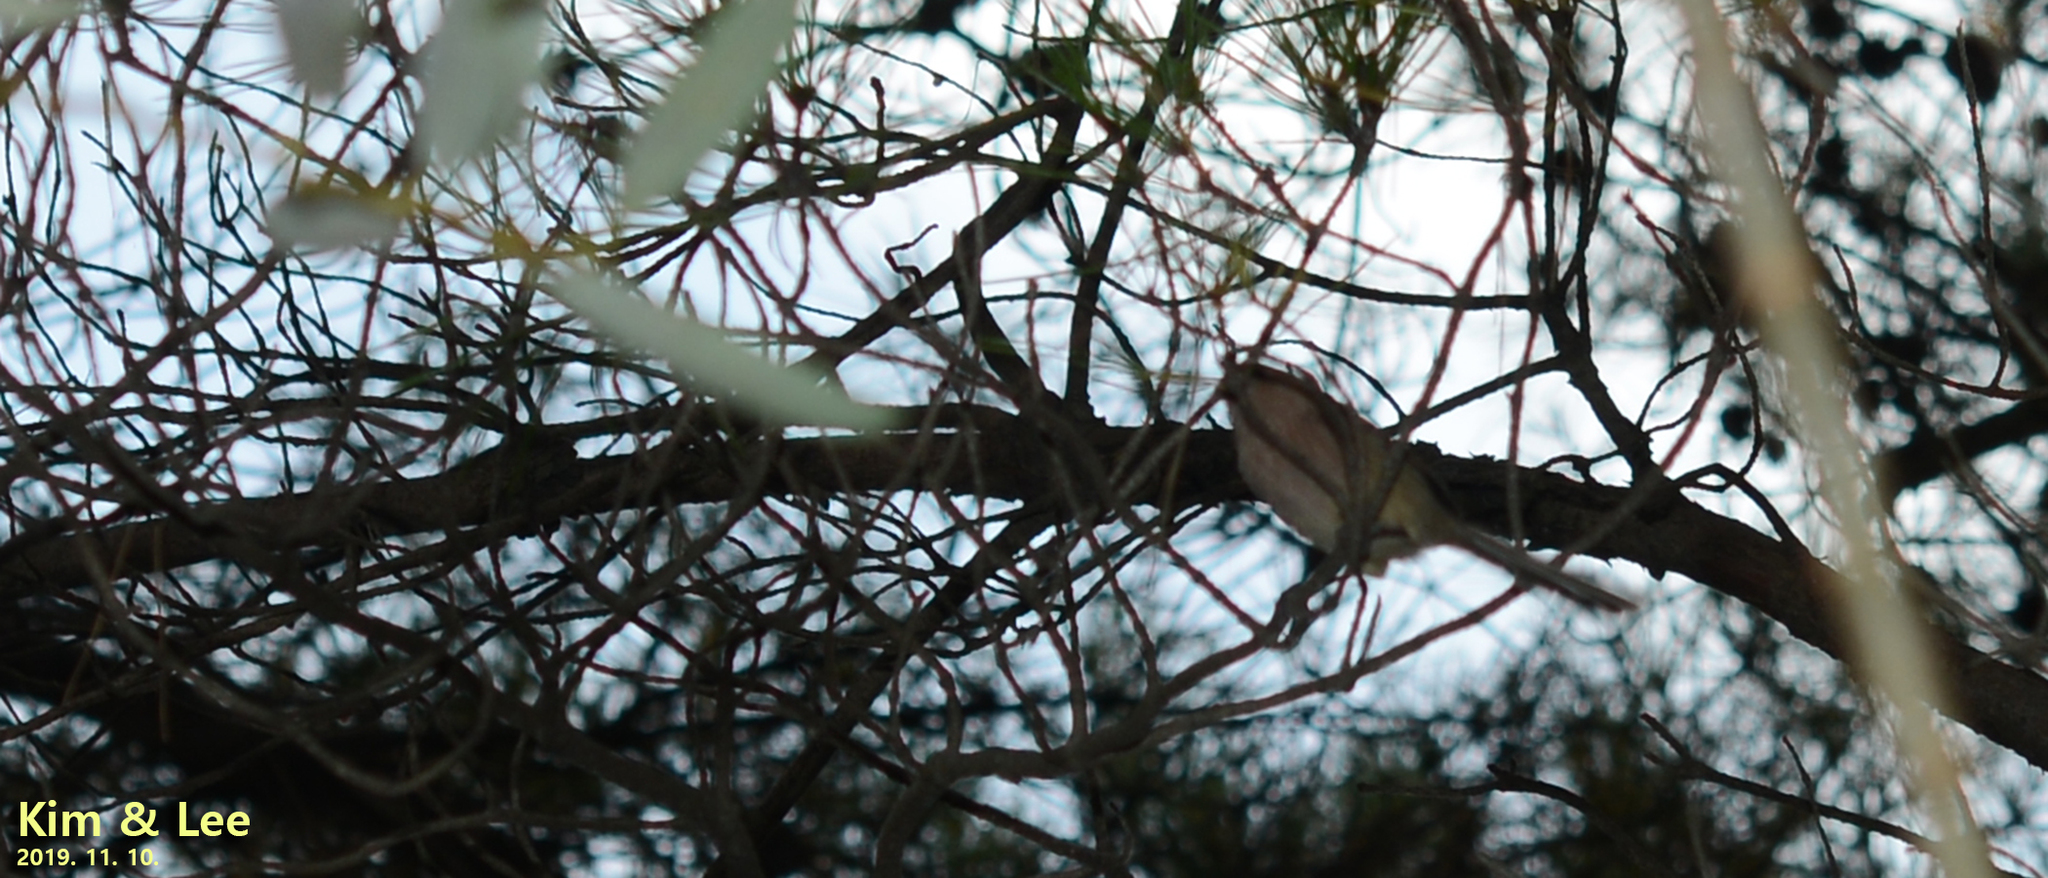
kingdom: Animalia
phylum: Chordata
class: Aves
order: Passeriformes
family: Sylviidae
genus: Sinosuthora
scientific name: Sinosuthora webbiana
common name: Vinous-throated parrotbill
